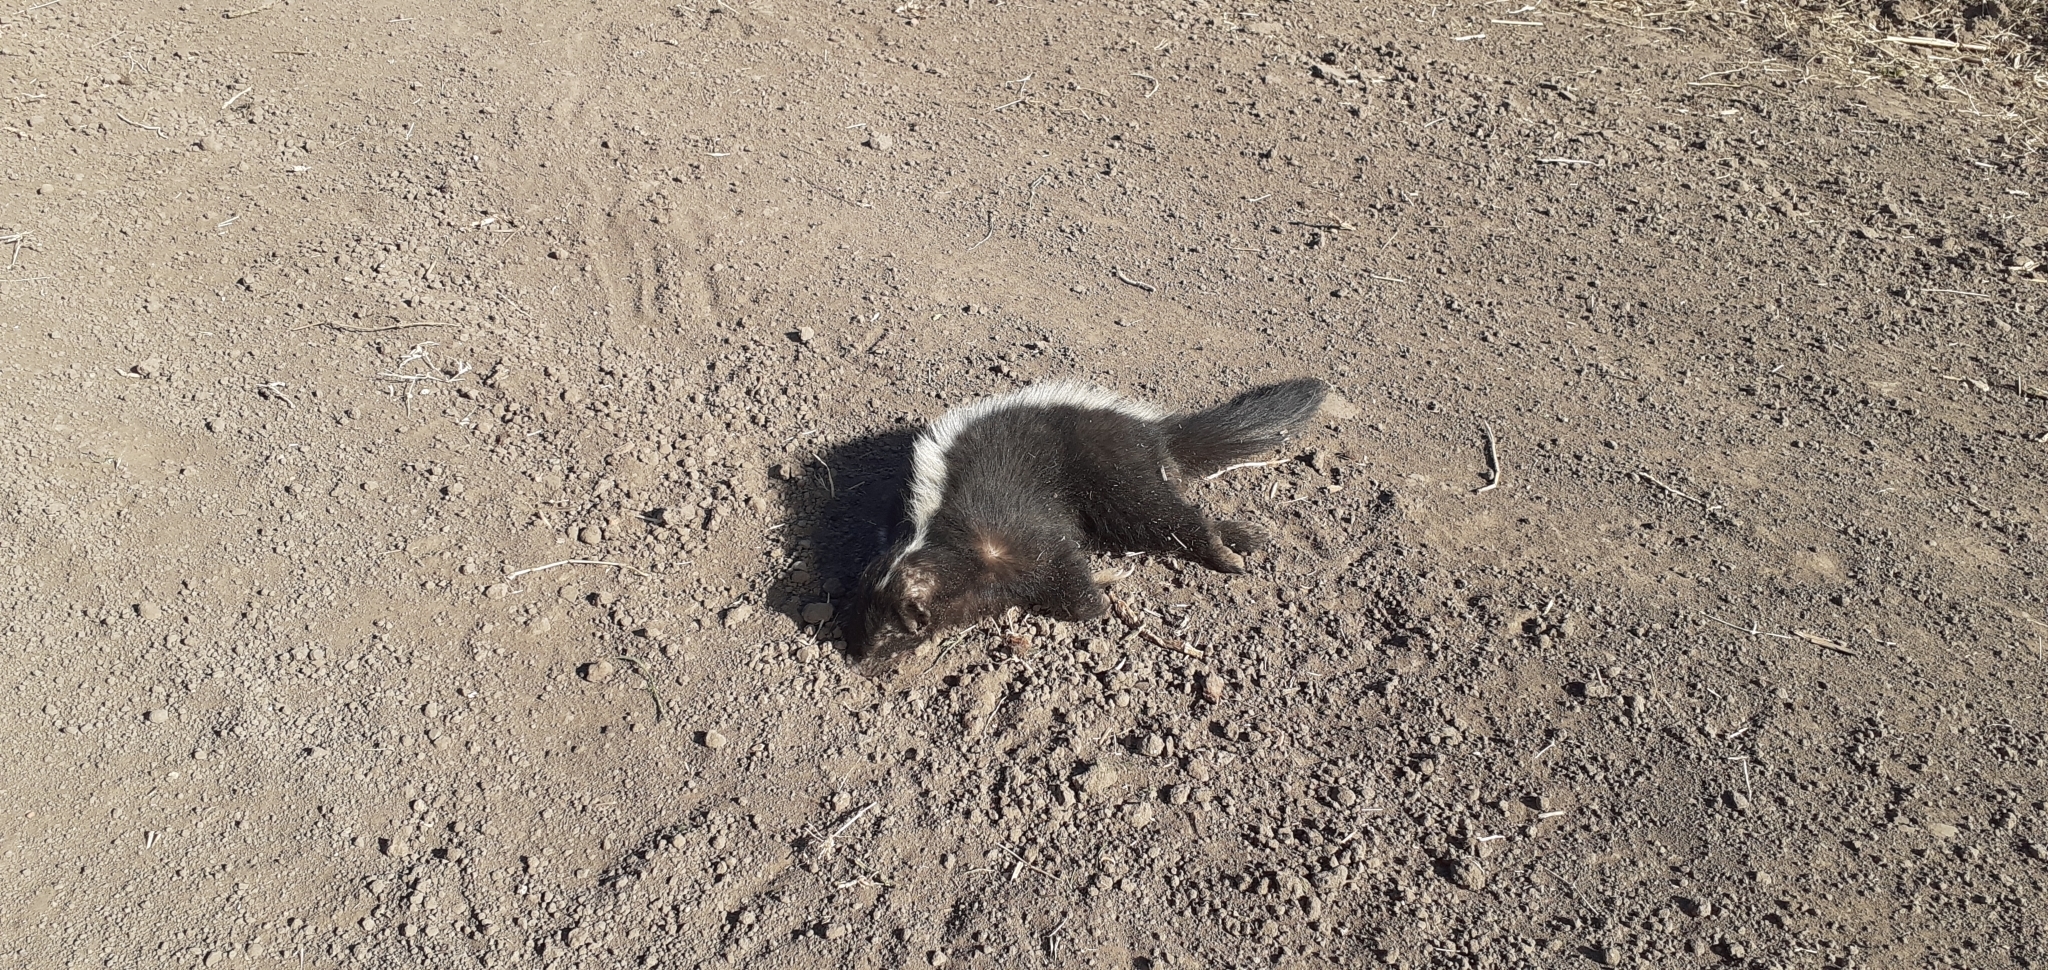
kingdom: Animalia
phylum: Chordata
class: Mammalia
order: Carnivora
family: Mephitidae
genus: Conepatus
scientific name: Conepatus chinga
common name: Molina's hog-nosed skunk
